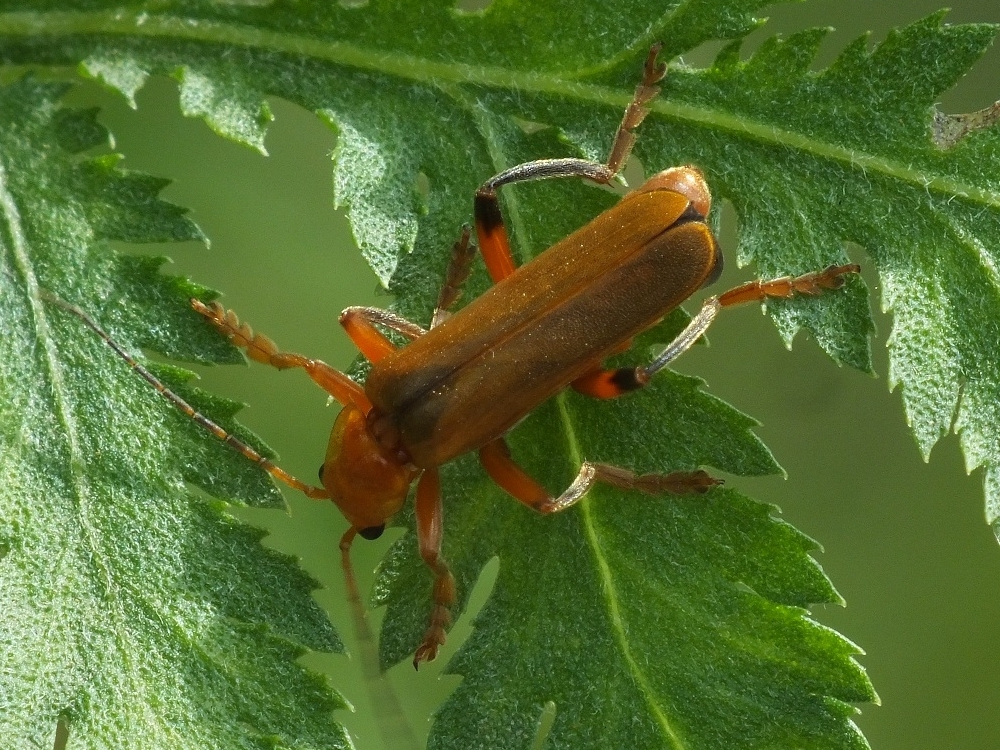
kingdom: Animalia
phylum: Arthropoda
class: Insecta
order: Coleoptera
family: Cantharidae
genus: Cantharis
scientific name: Cantharis livida
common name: Livid soldier beetle
